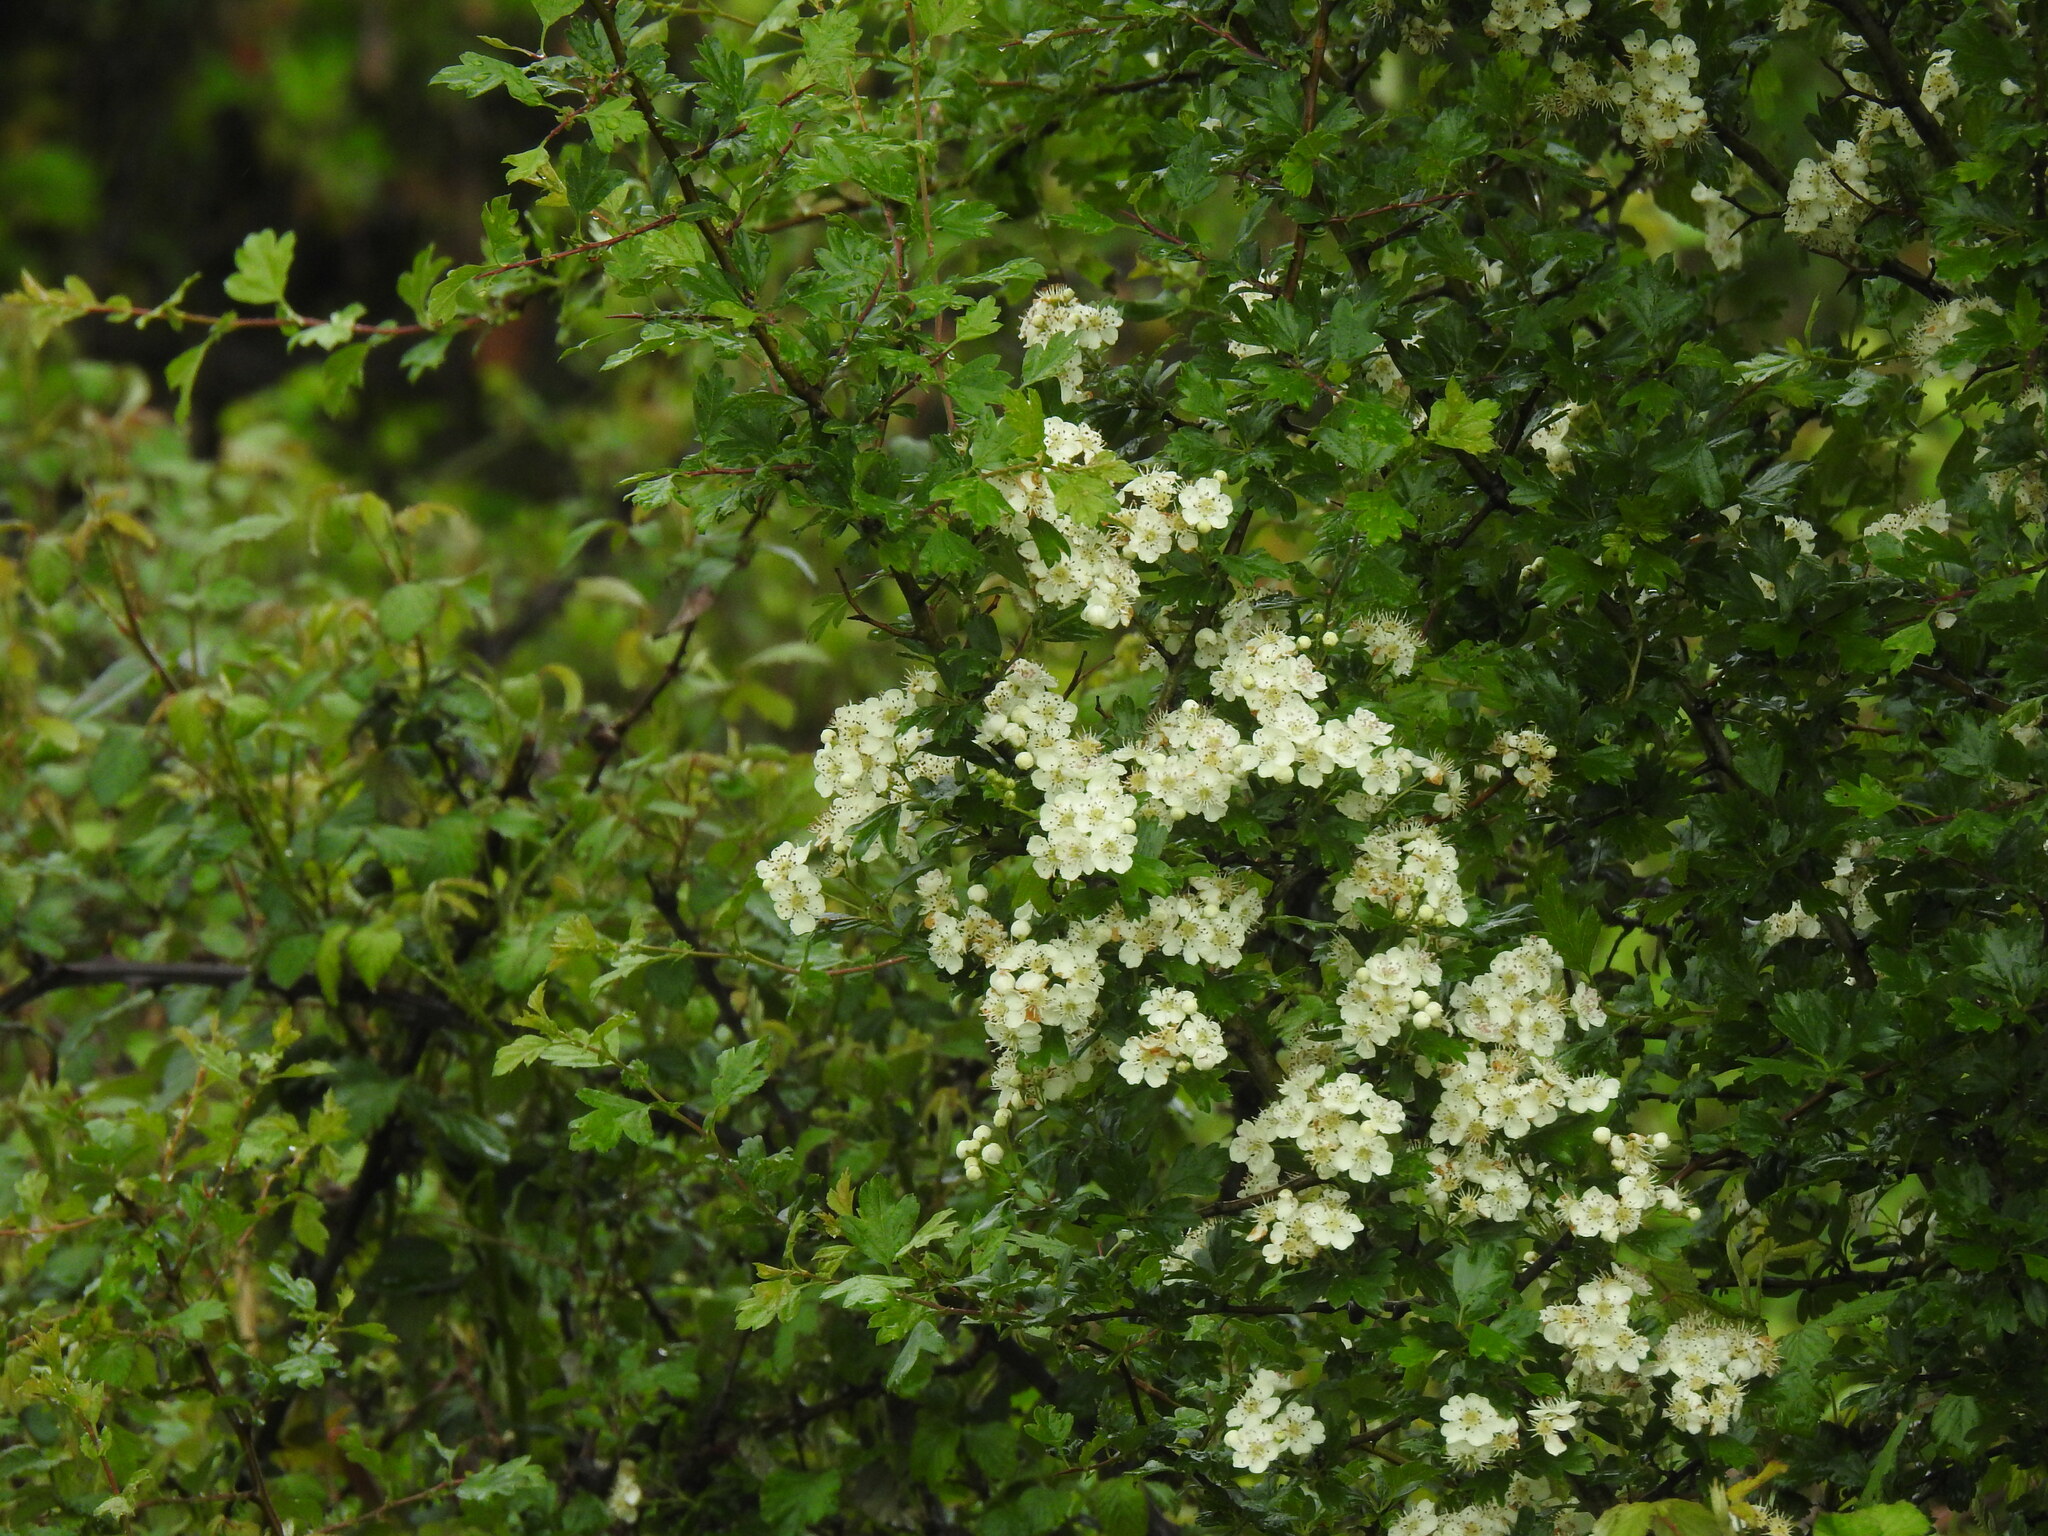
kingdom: Plantae
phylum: Tracheophyta
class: Magnoliopsida
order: Rosales
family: Rosaceae
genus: Crataegus
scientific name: Crataegus monogyna
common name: Hawthorn
